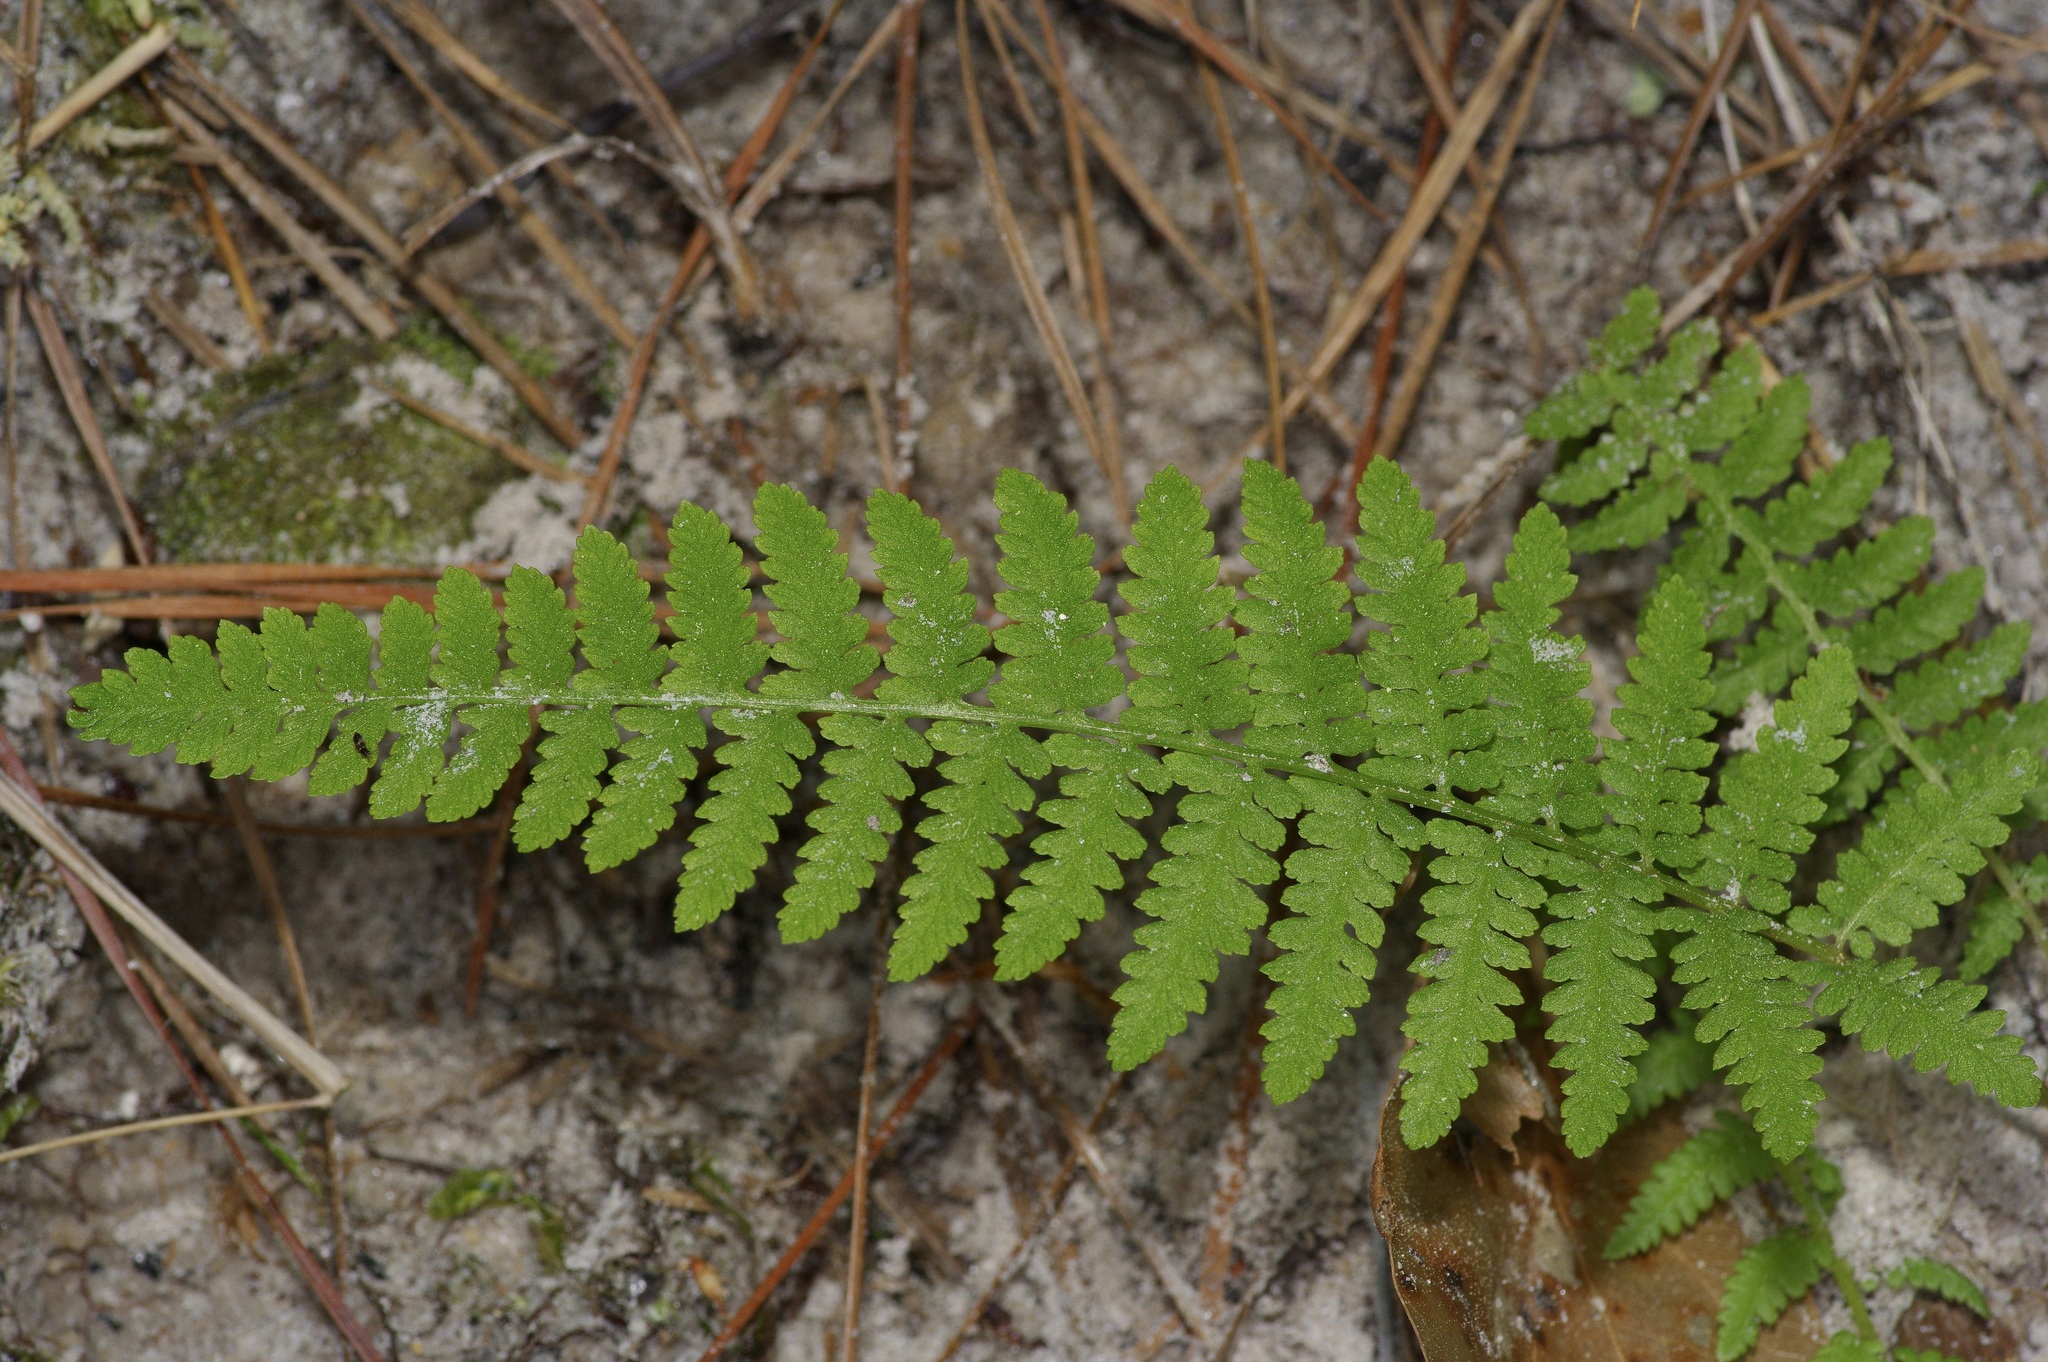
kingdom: Plantae
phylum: Tracheophyta
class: Polypodiopsida
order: Polypodiales
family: Athyriaceae
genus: Athyrium
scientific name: Athyrium asplenioides
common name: Southern lady fern
